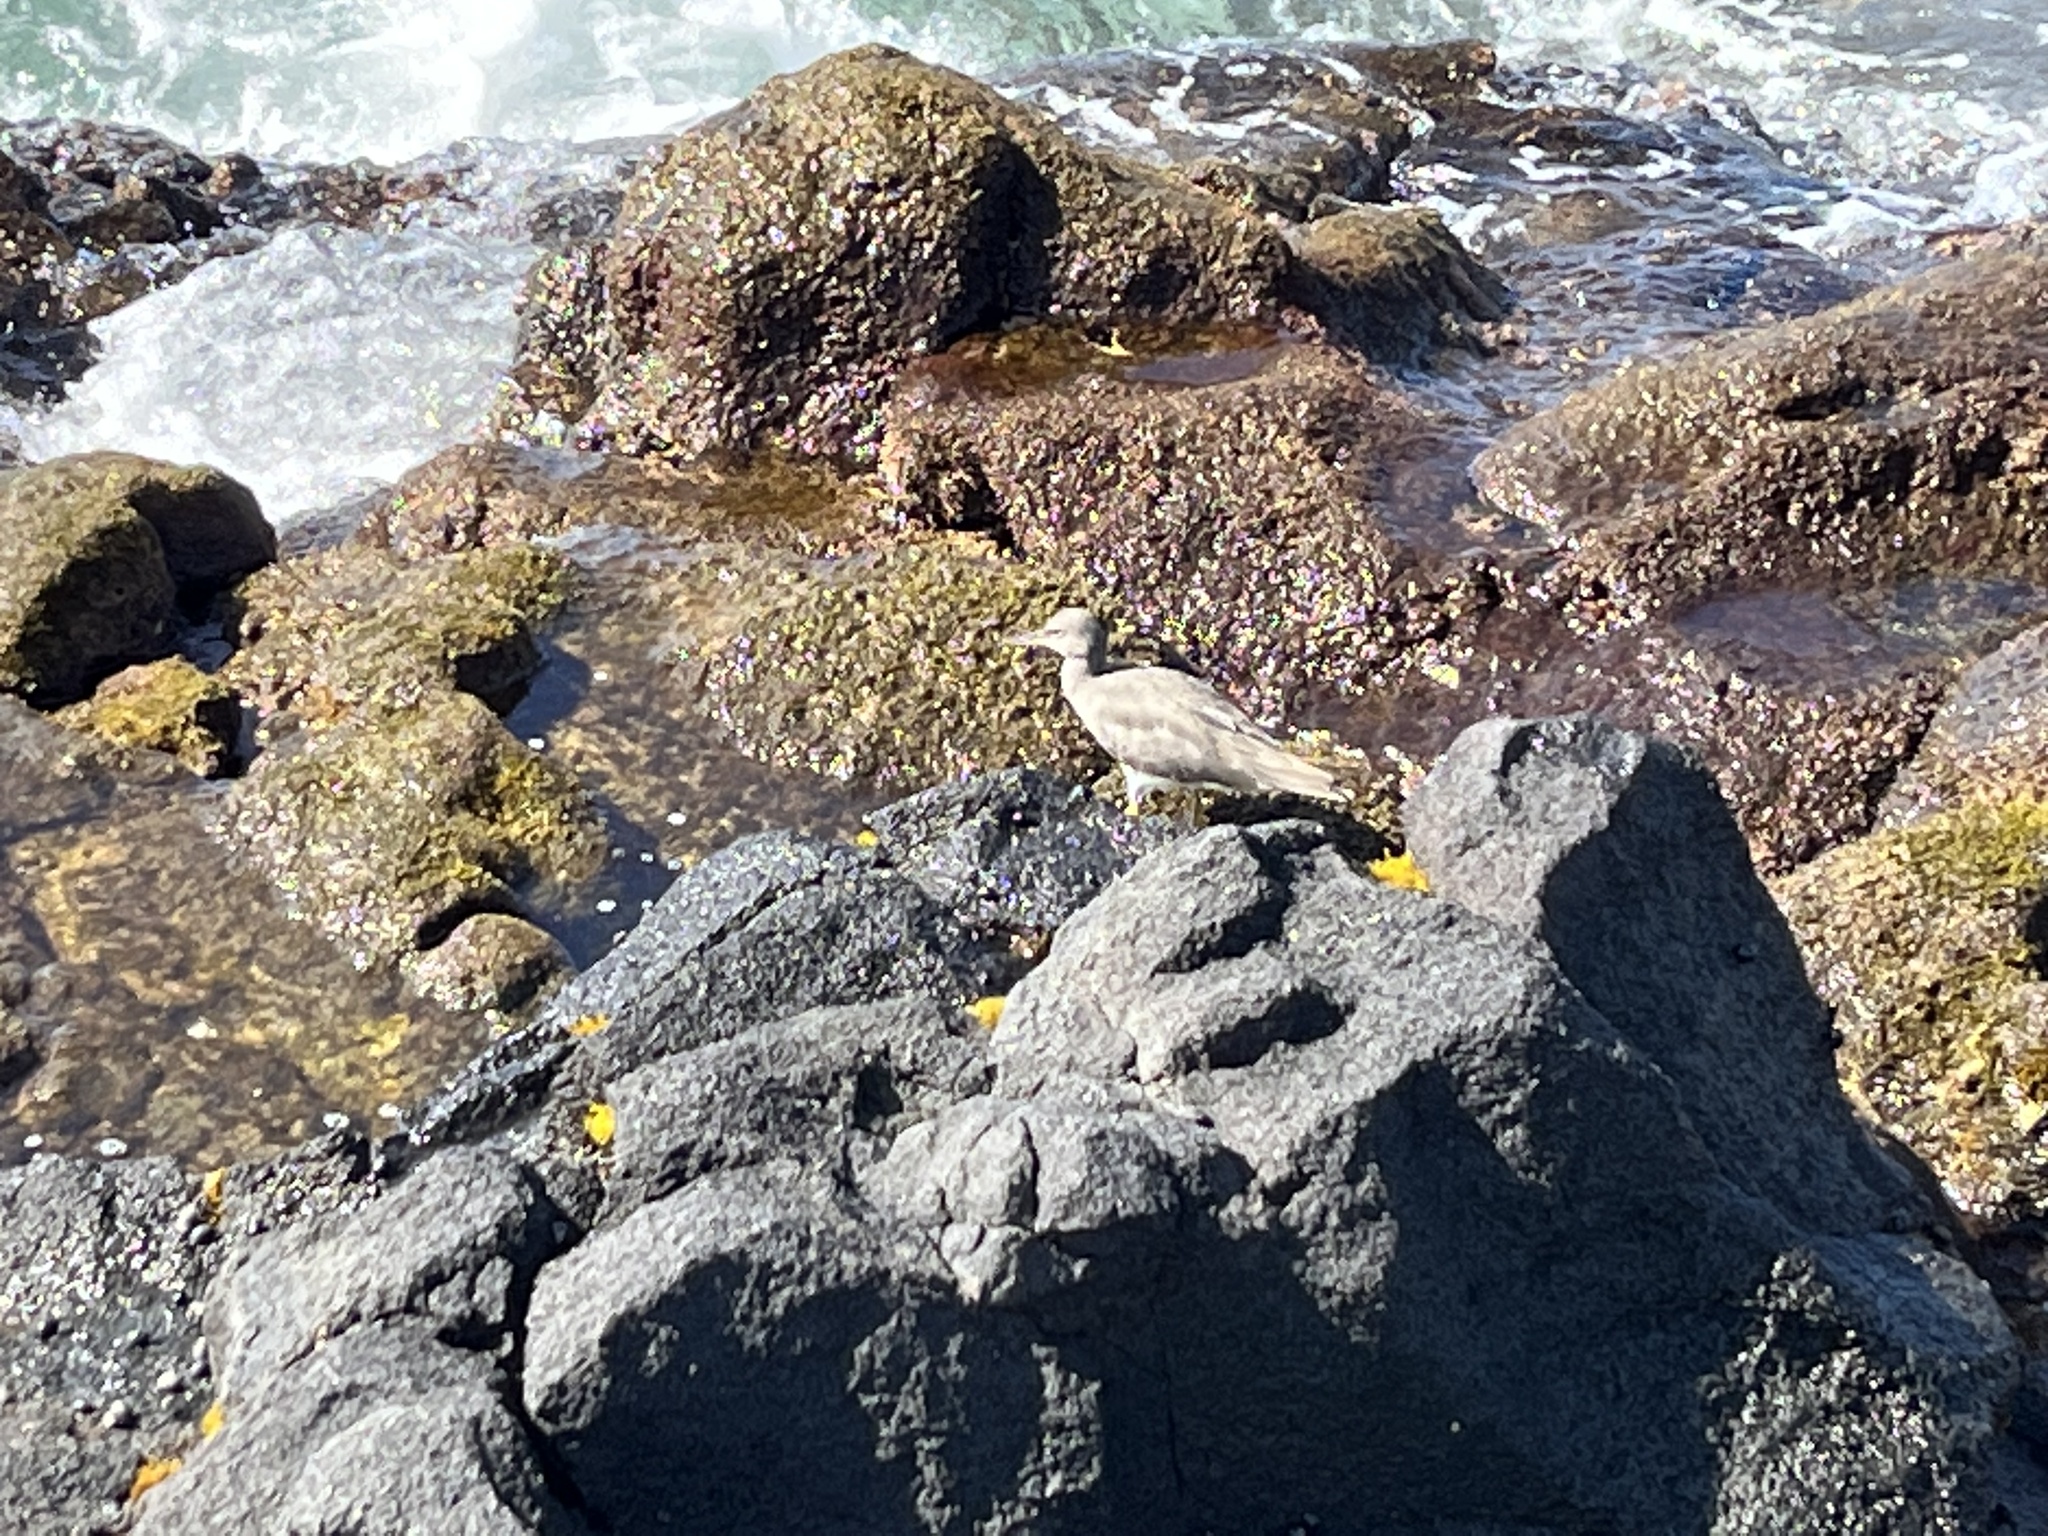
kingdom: Animalia
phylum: Chordata
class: Aves
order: Charadriiformes
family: Scolopacidae
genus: Tringa
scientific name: Tringa incana
